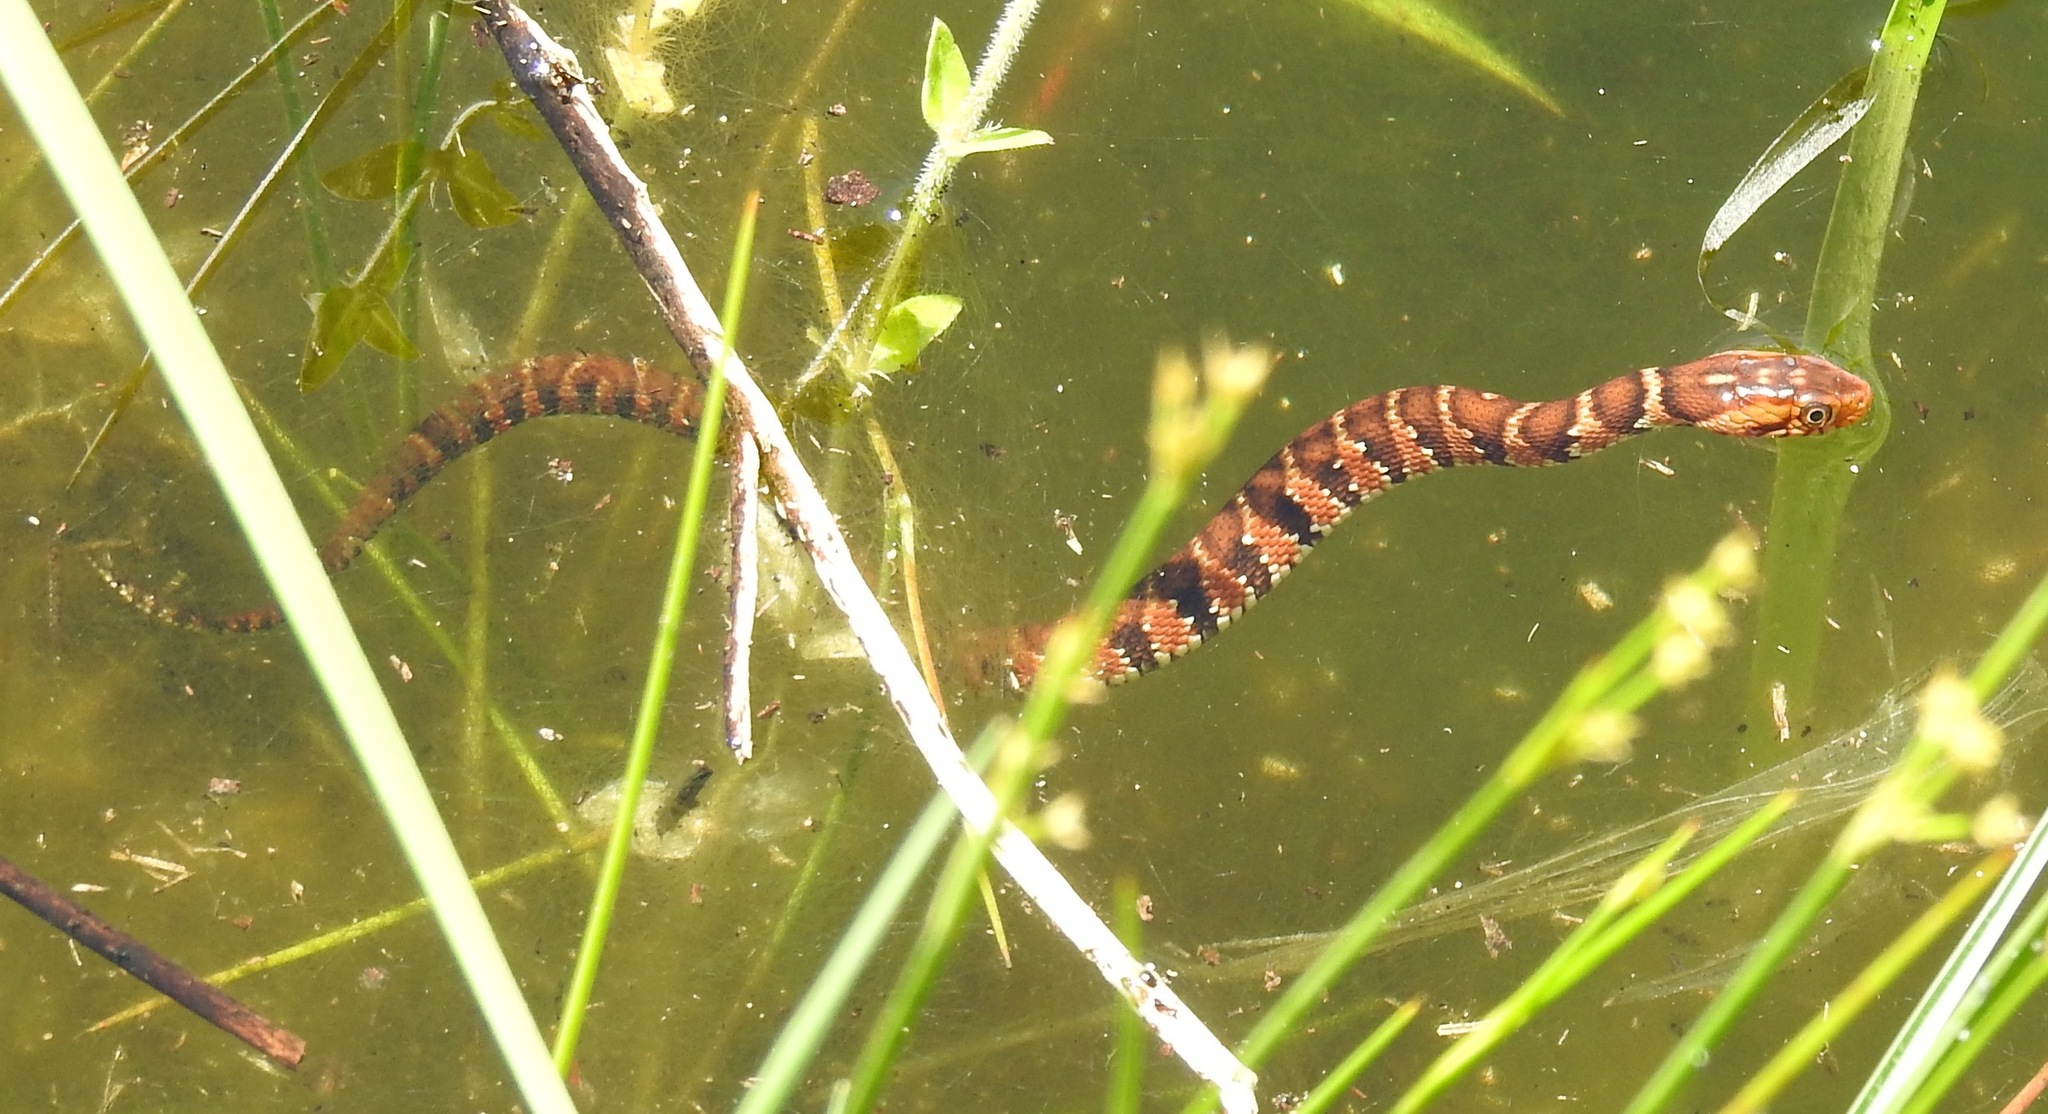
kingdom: Animalia
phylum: Chordata
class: Squamata
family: Colubridae
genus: Nerodia
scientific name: Nerodia fasciata
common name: Southern water snake
